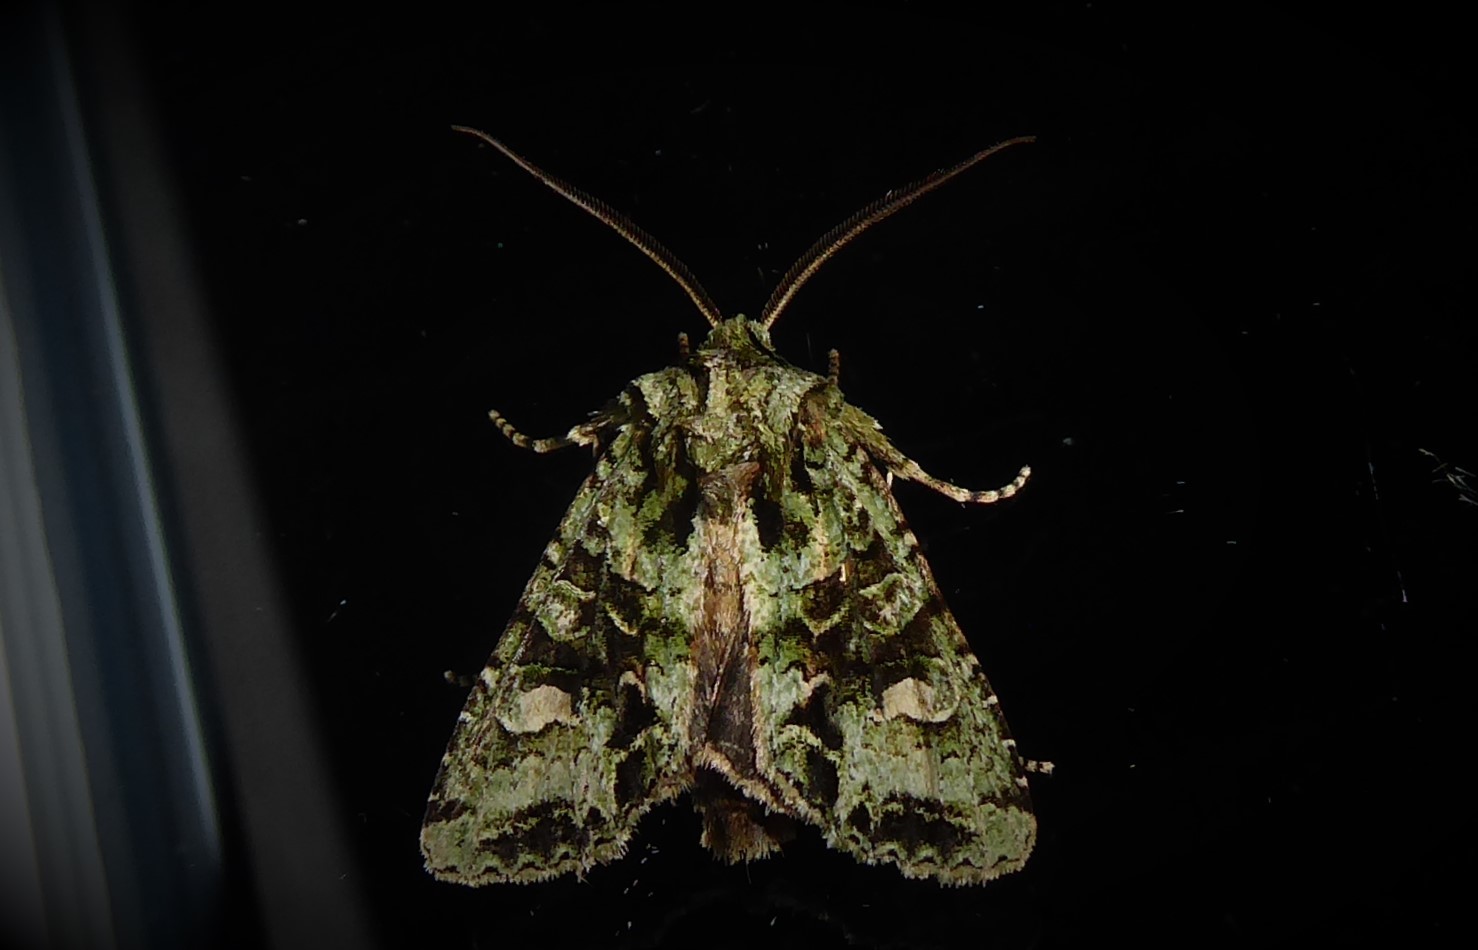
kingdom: Animalia
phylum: Arthropoda
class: Insecta
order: Lepidoptera
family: Noctuidae
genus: Ichneutica
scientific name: Ichneutica
